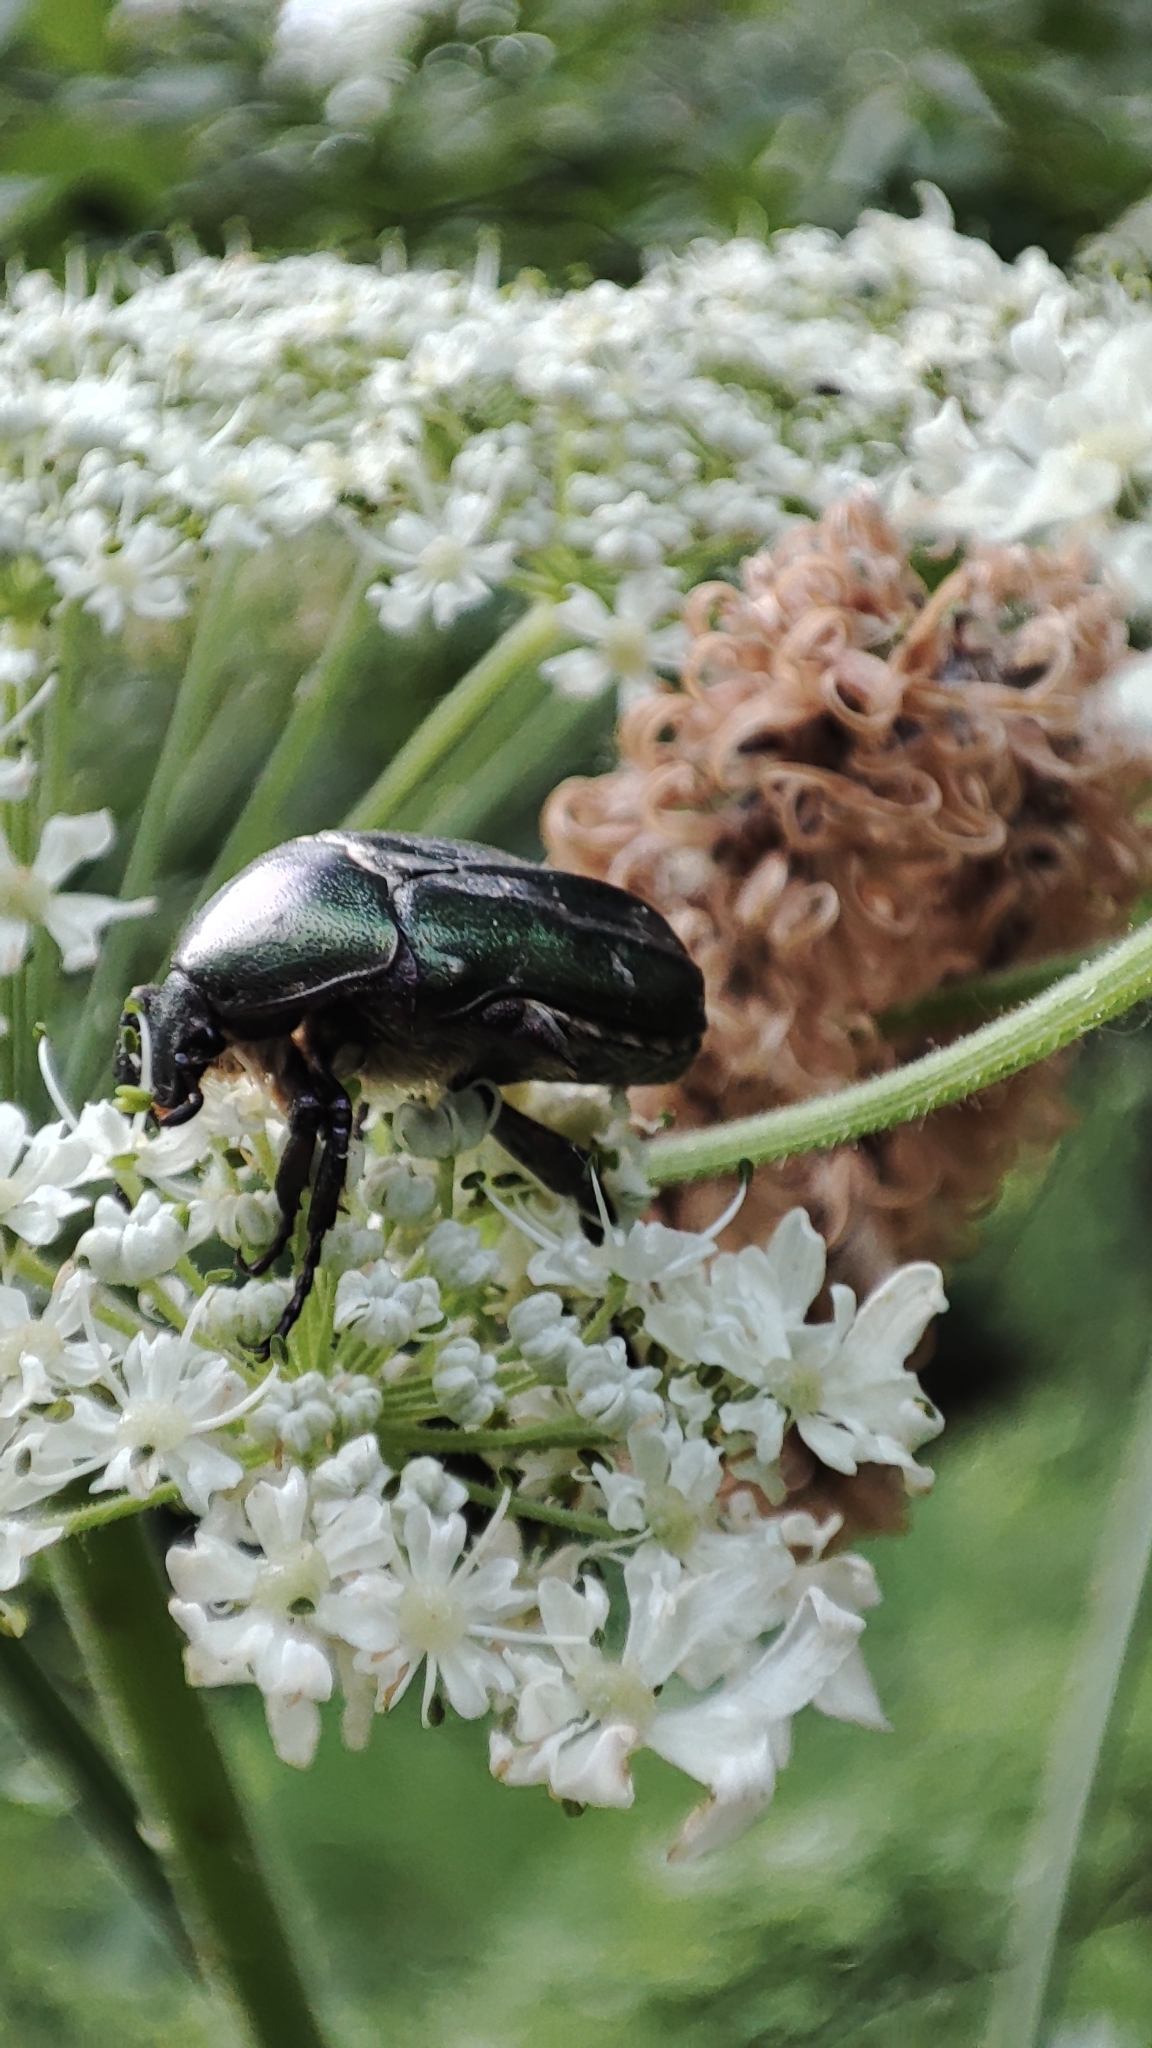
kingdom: Animalia
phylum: Arthropoda
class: Insecta
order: Coleoptera
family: Scarabaeidae
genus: Cetonia
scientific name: Cetonia aurata
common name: Rose chafer
